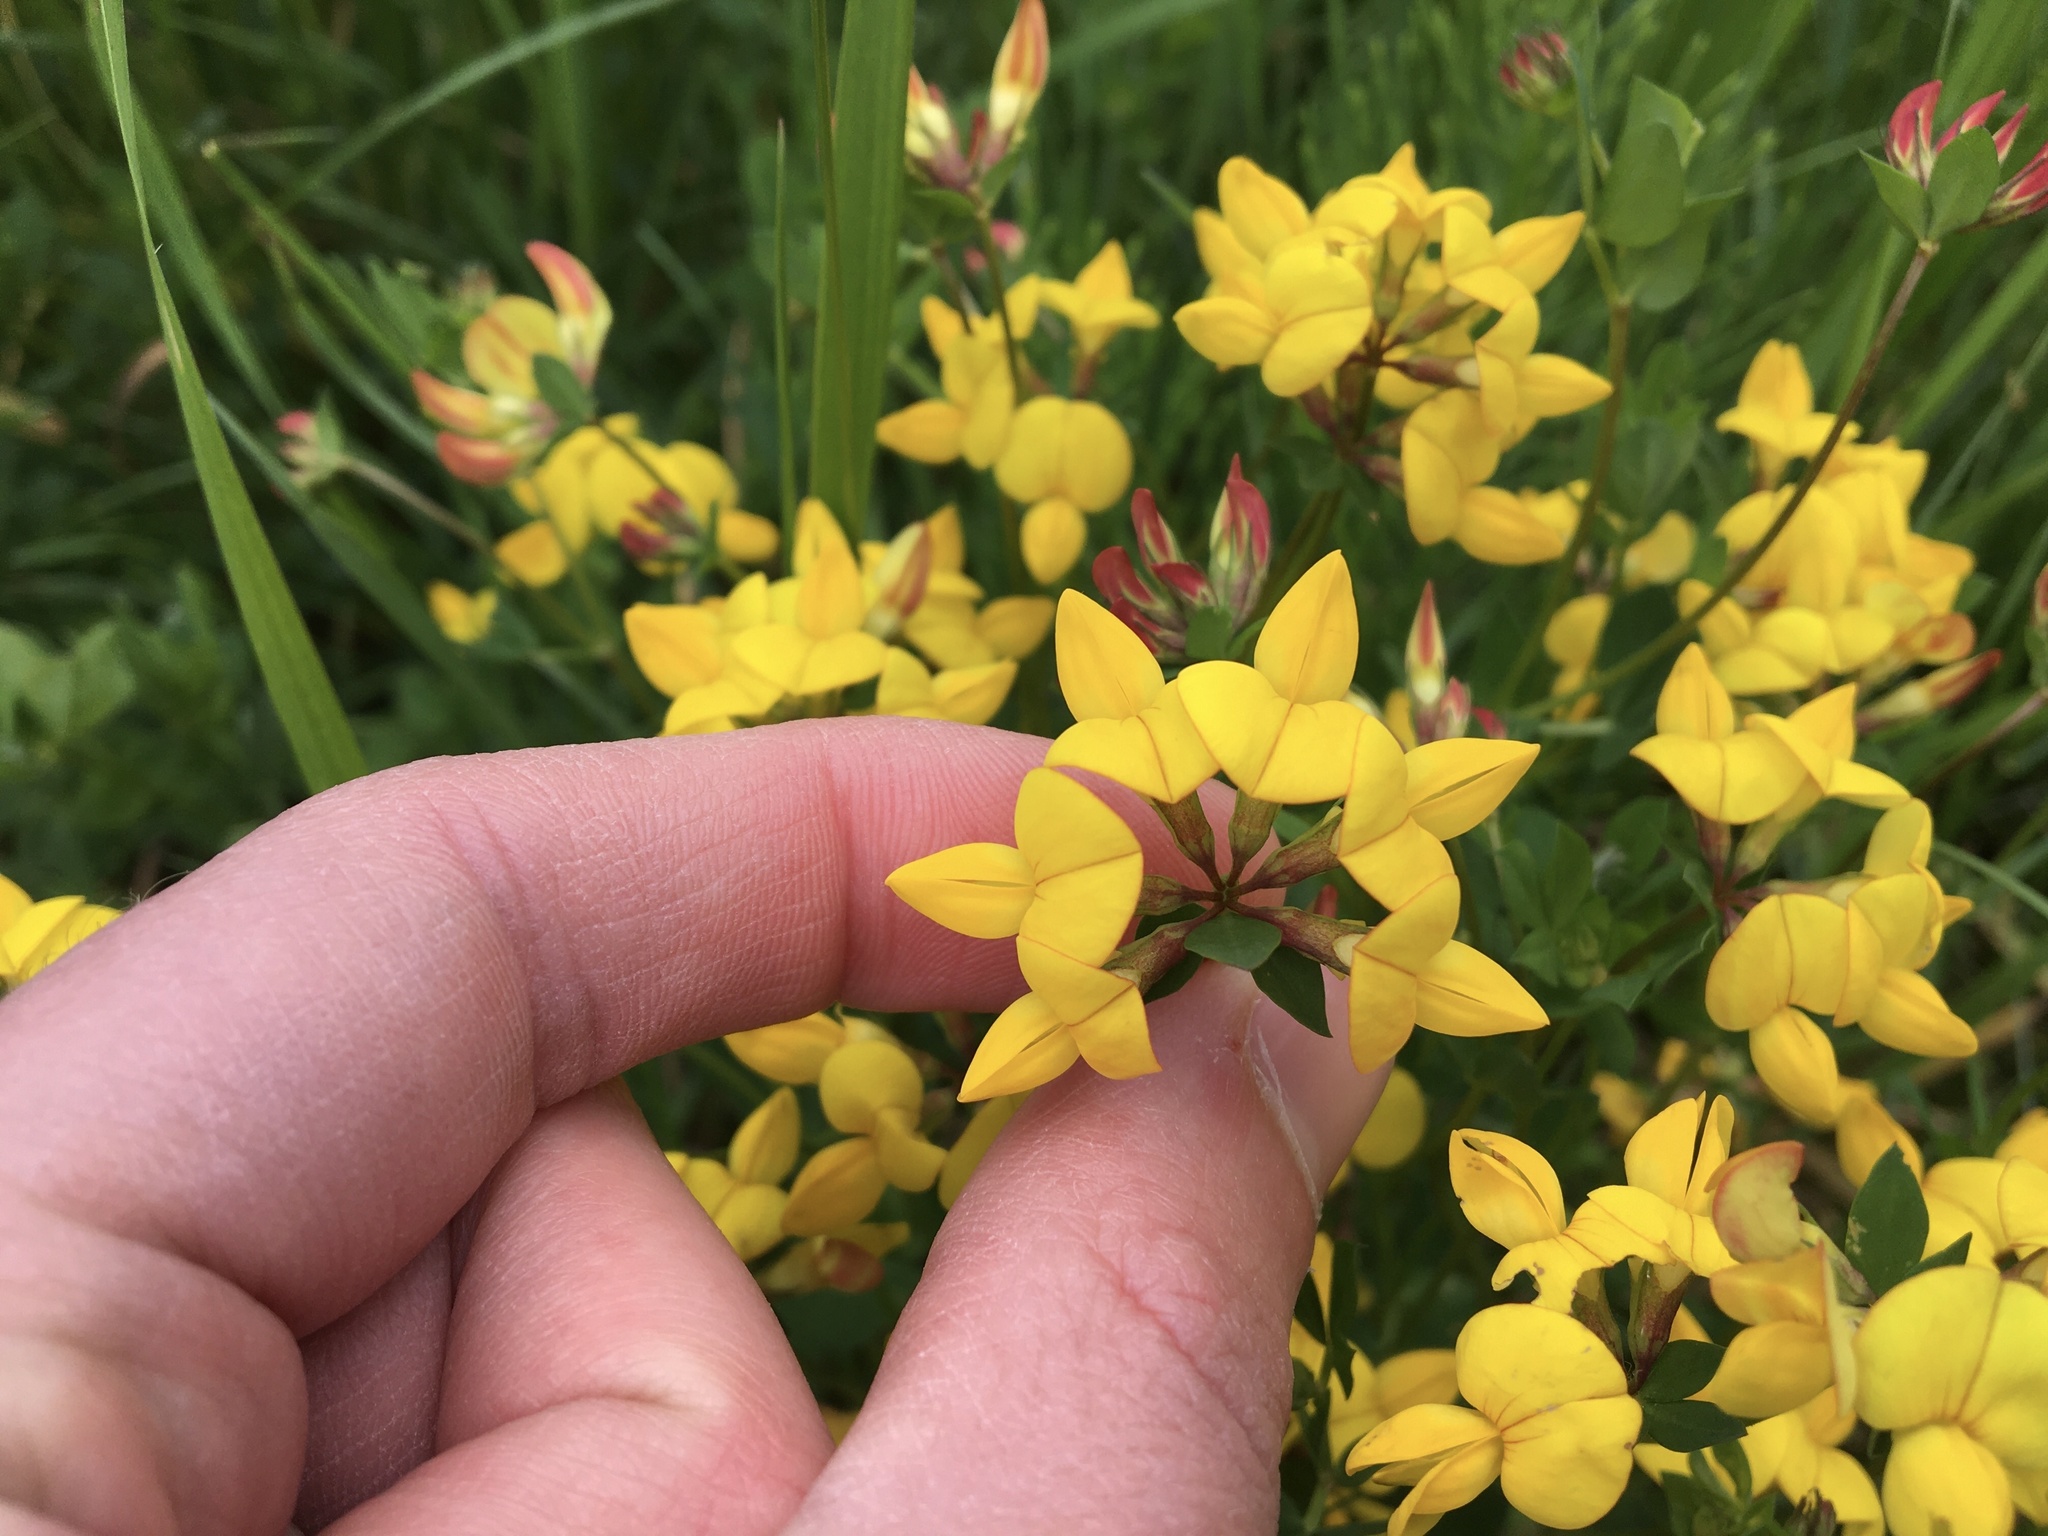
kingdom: Plantae
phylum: Tracheophyta
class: Magnoliopsida
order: Fabales
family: Fabaceae
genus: Lotus
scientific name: Lotus corniculatus
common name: Common bird's-foot-trefoil
